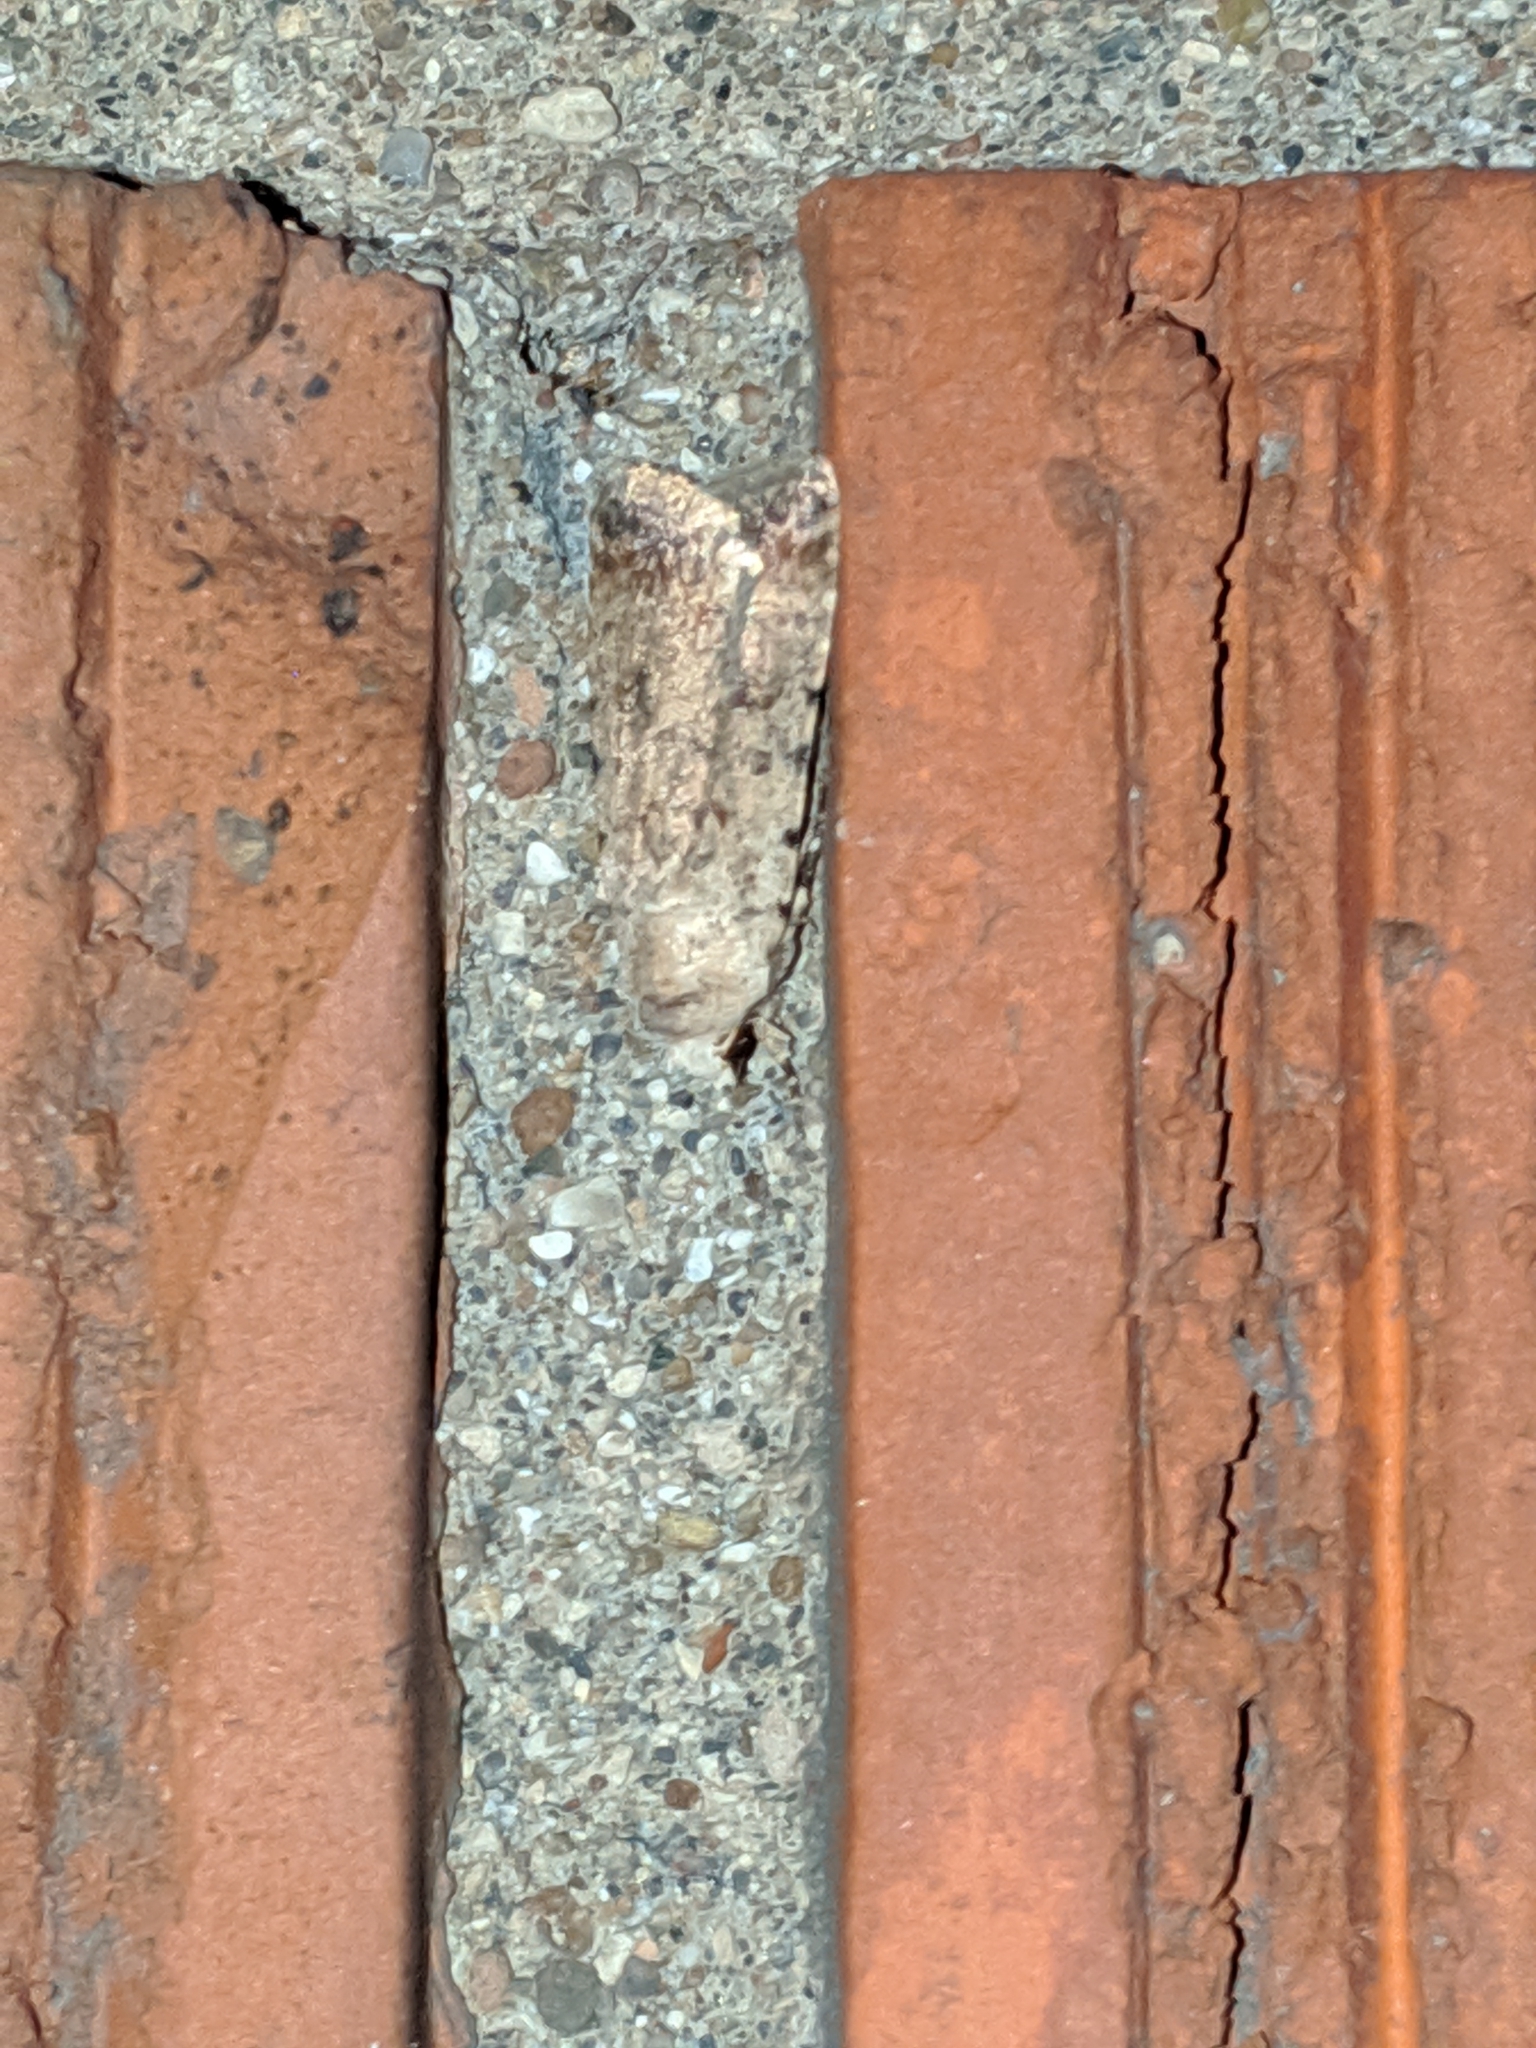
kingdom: Animalia
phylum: Arthropoda
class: Insecta
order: Lepidoptera
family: Noctuidae
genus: Anicla
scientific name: Anicla forbesi
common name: Forbes' dart
